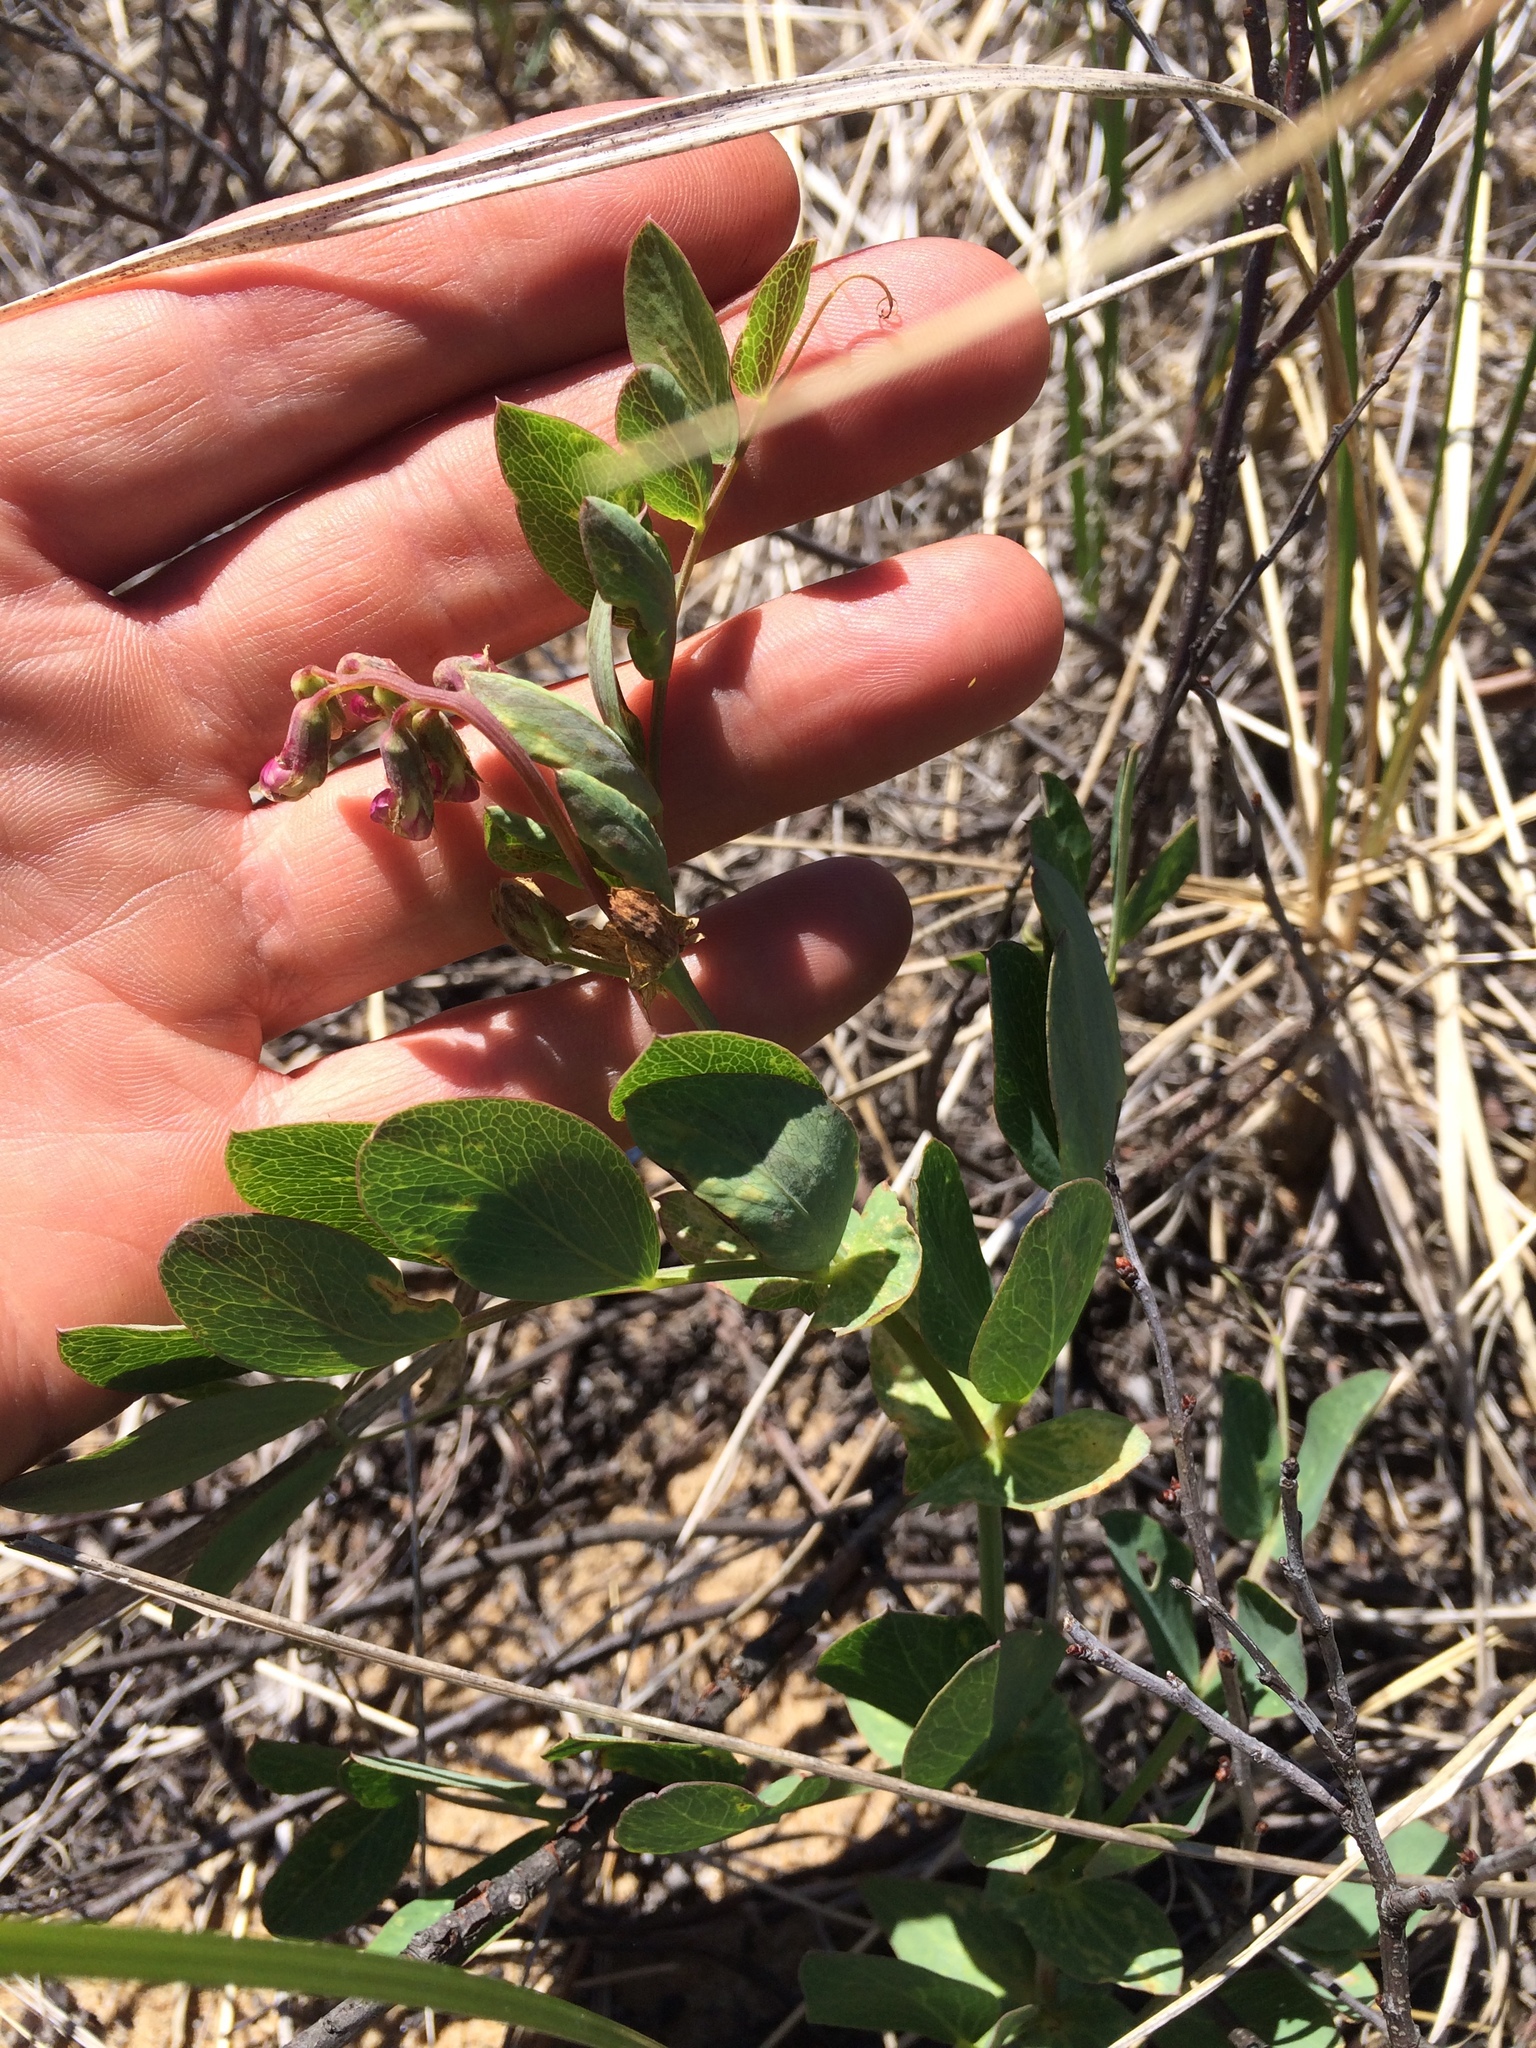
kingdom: Plantae
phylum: Tracheophyta
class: Magnoliopsida
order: Fabales
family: Fabaceae
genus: Lathyrus
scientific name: Lathyrus japonicus
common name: Sea pea
